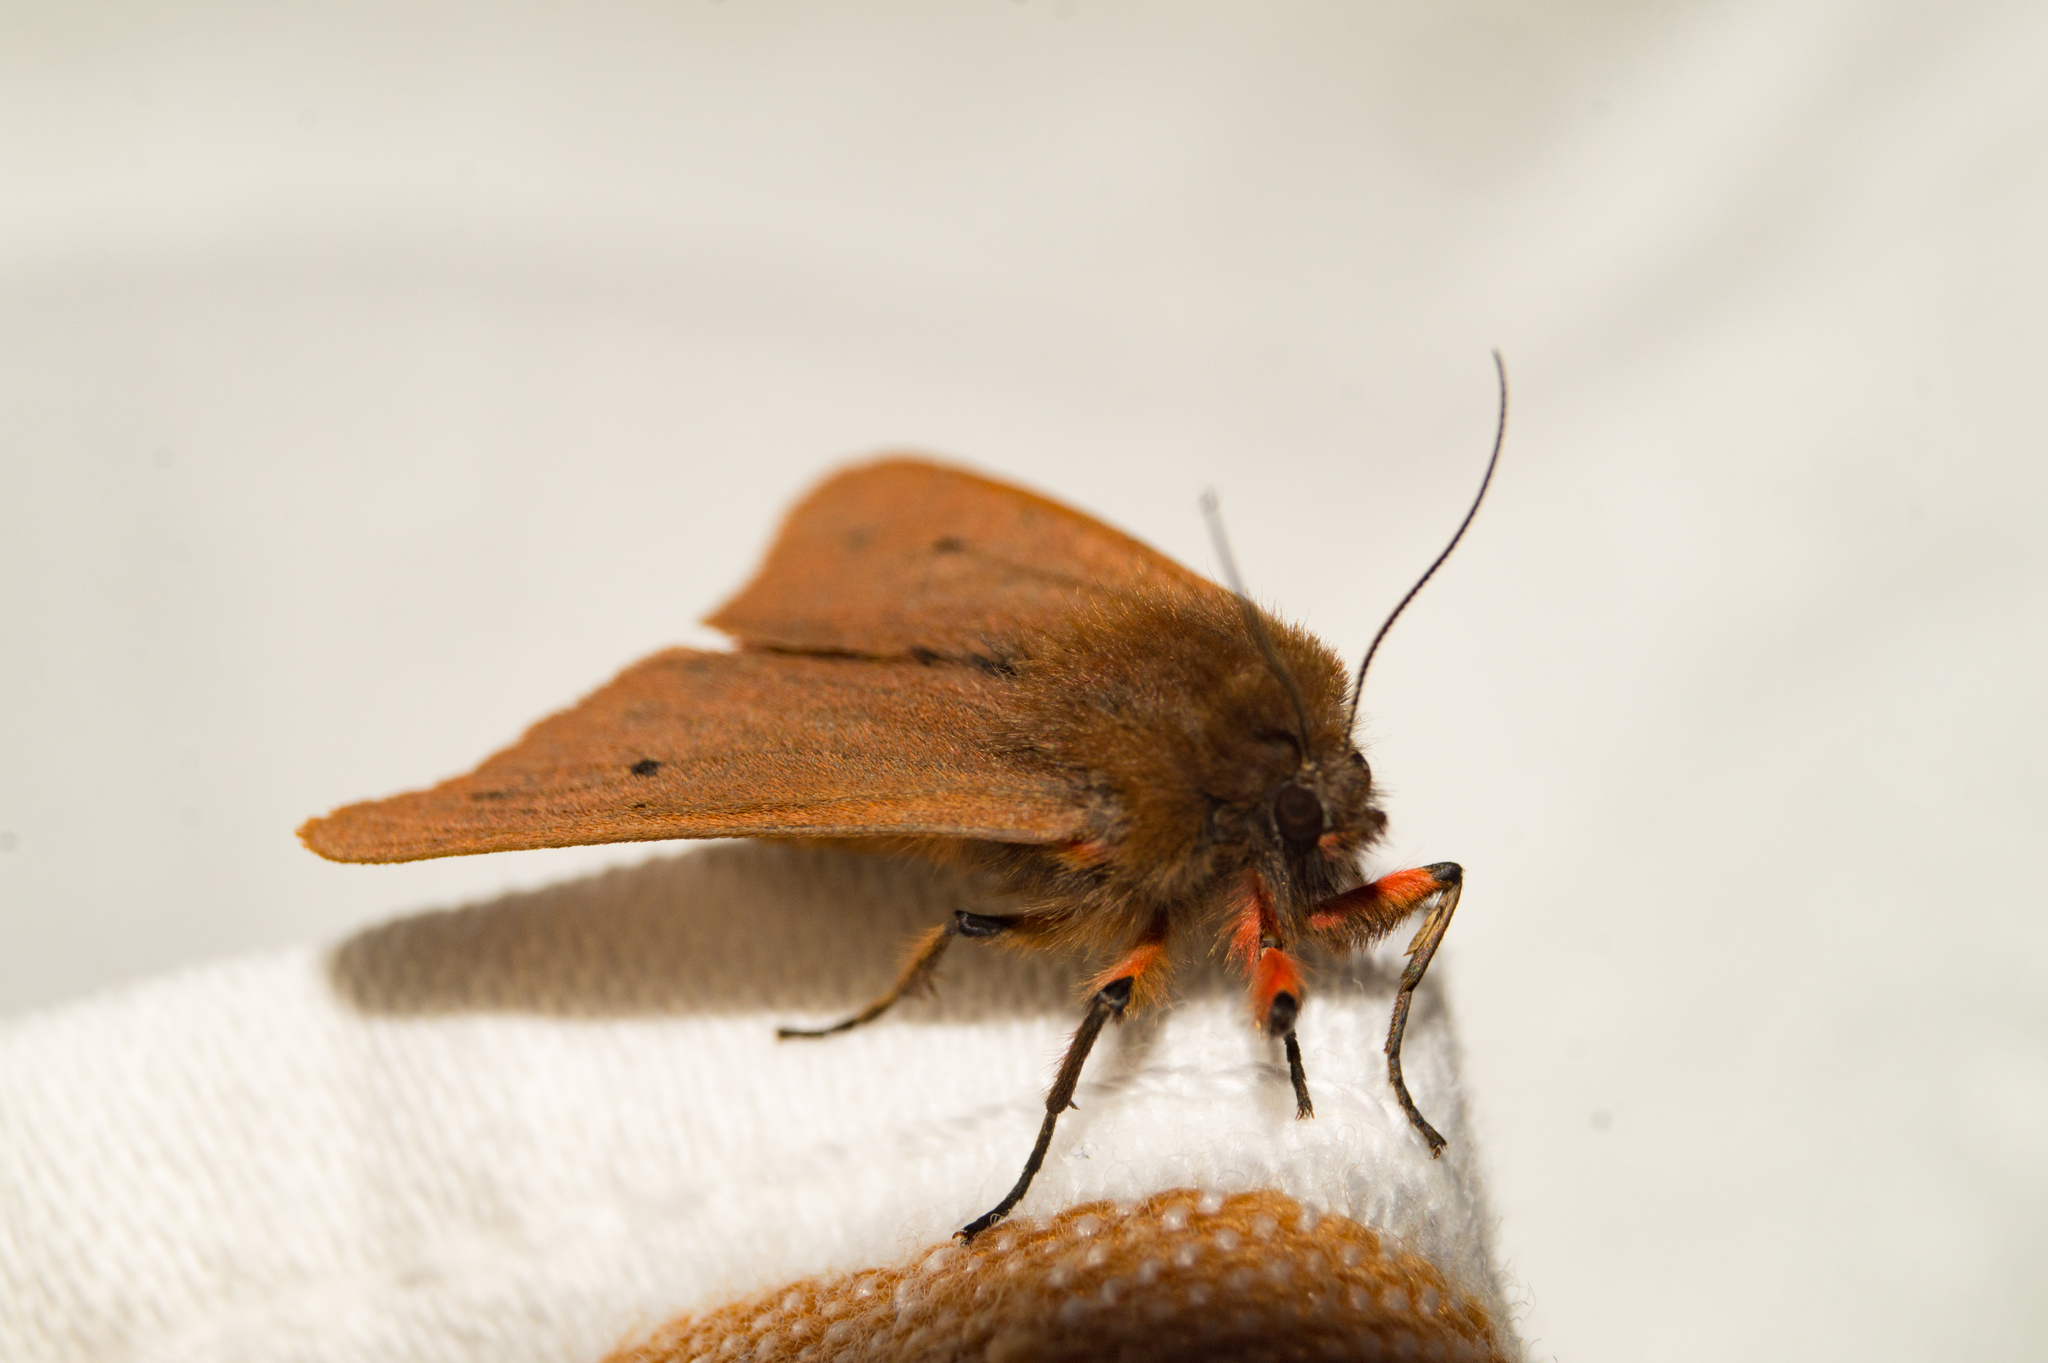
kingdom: Animalia
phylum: Arthropoda
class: Insecta
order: Lepidoptera
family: Erebidae
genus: Phragmatobia
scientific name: Phragmatobia fuliginosa
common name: Ruby tiger
